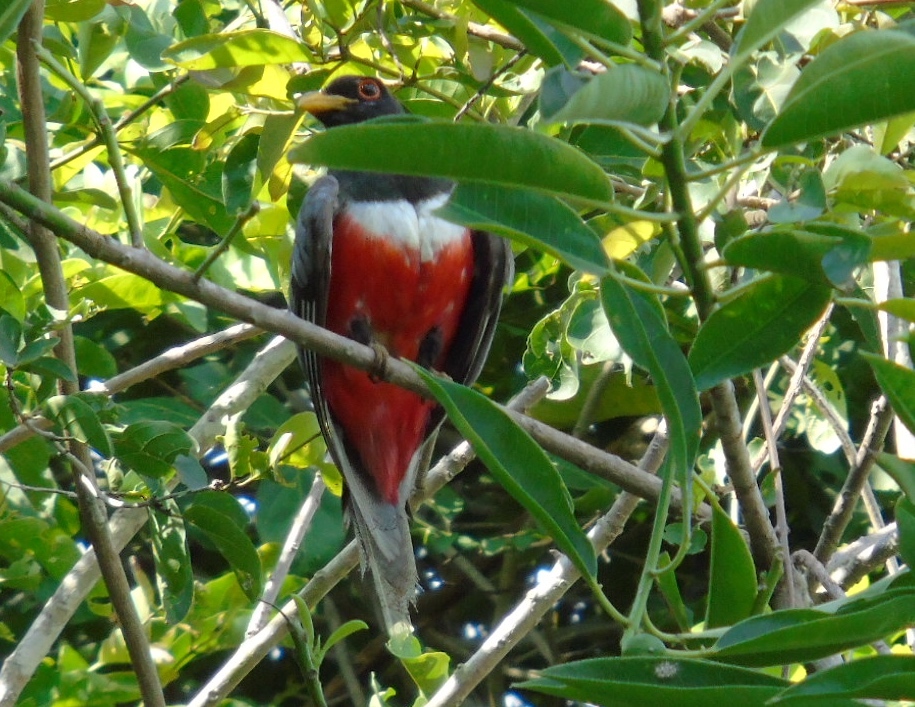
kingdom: Animalia
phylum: Chordata
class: Aves
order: Trogoniformes
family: Trogonidae
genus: Trogon
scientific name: Trogon elegans
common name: Elegant trogon
